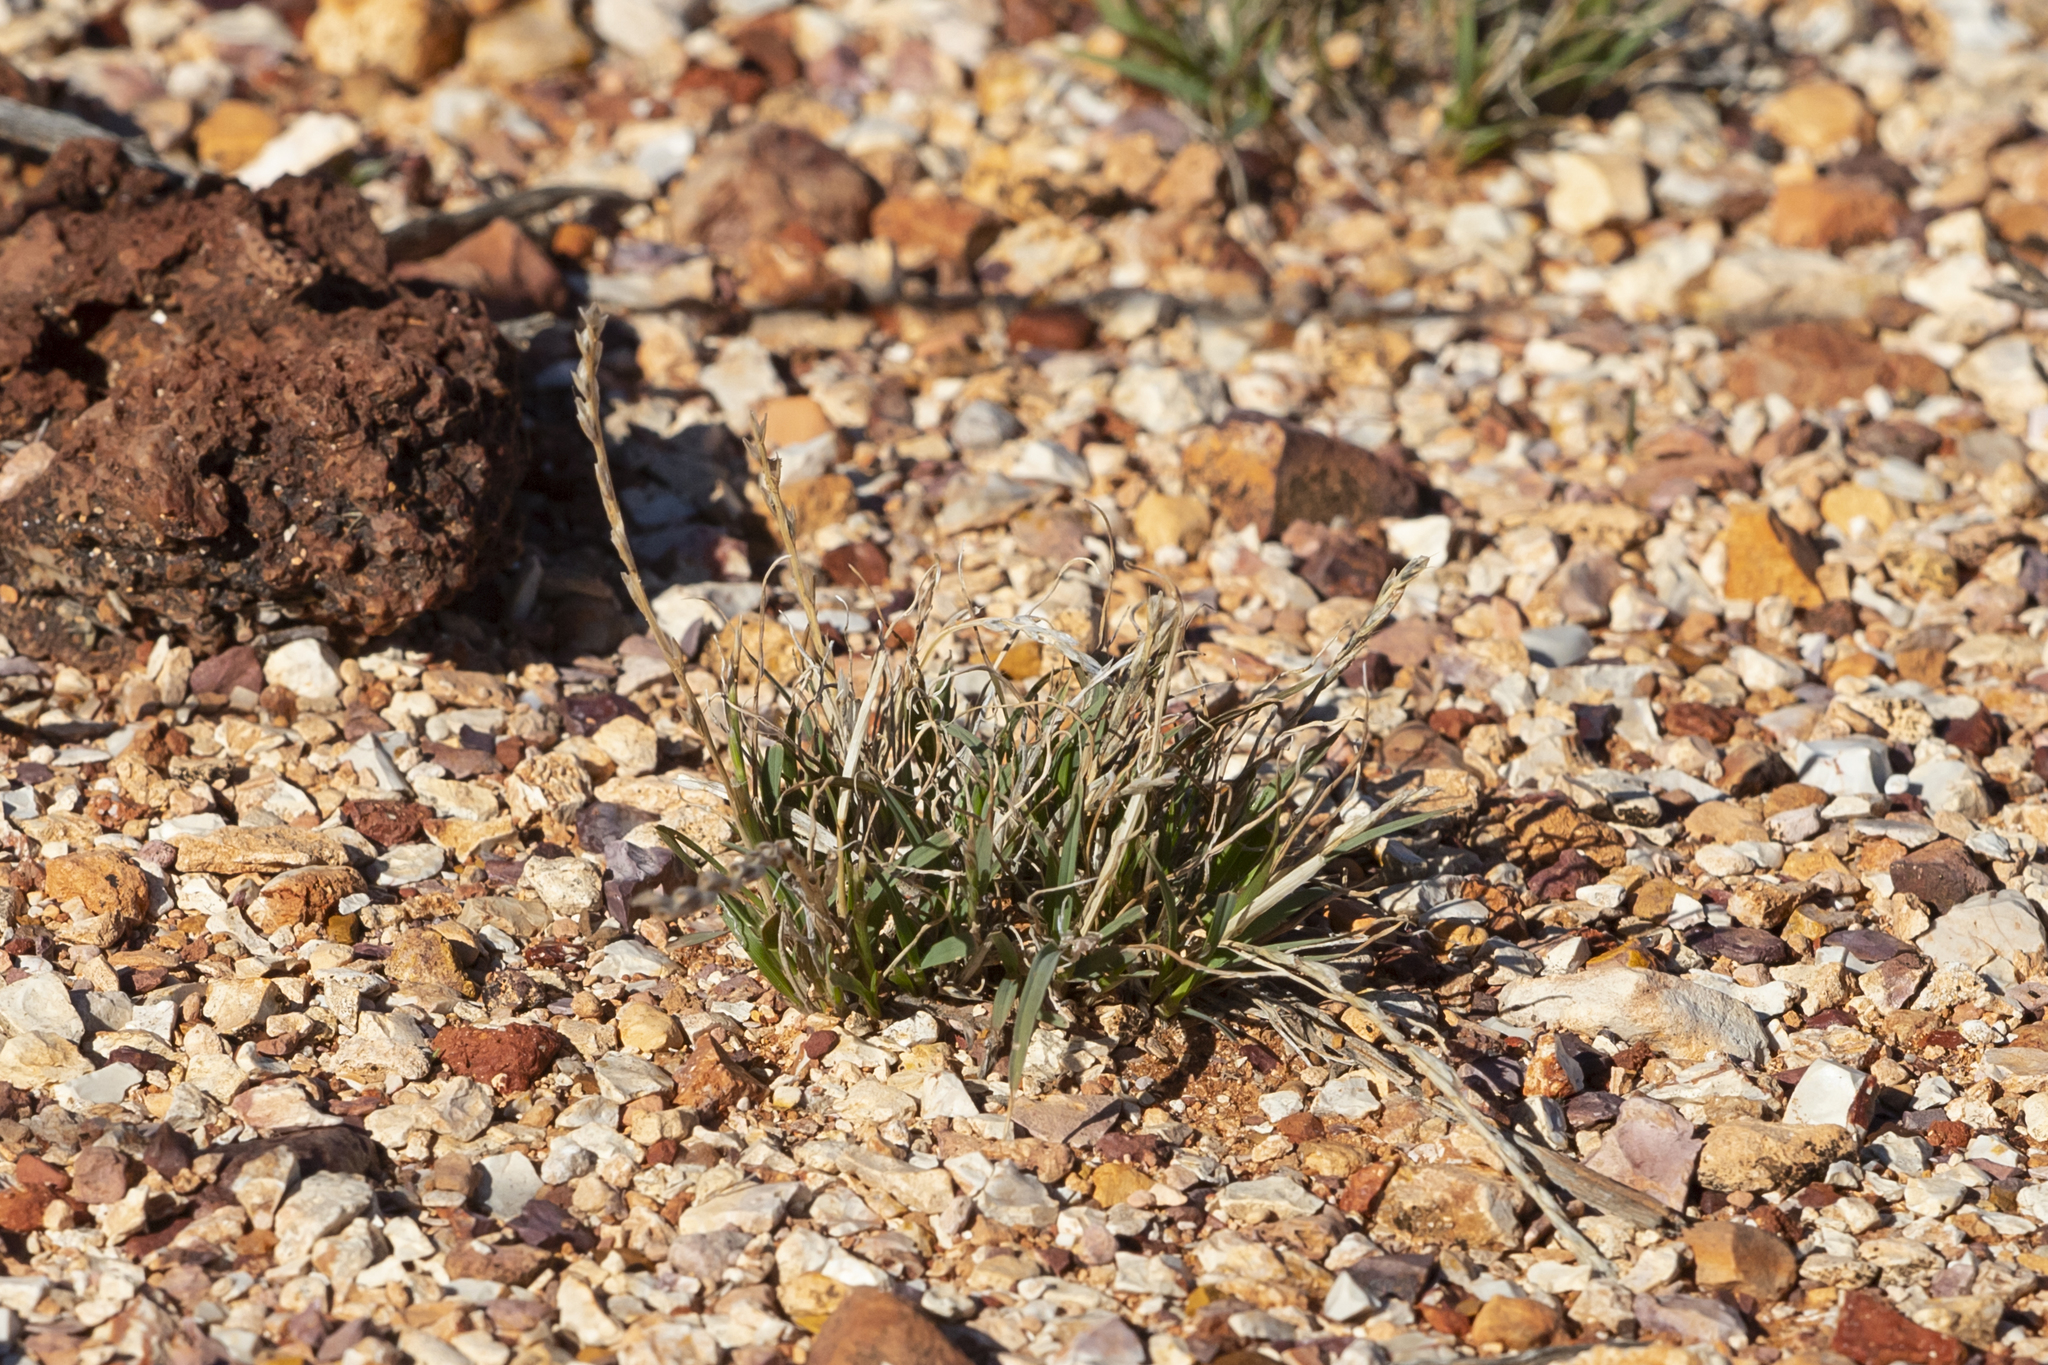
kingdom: Plantae
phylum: Tracheophyta
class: Liliopsida
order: Poales
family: Poaceae
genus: Tripogonella
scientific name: Tripogonella loliiformis
